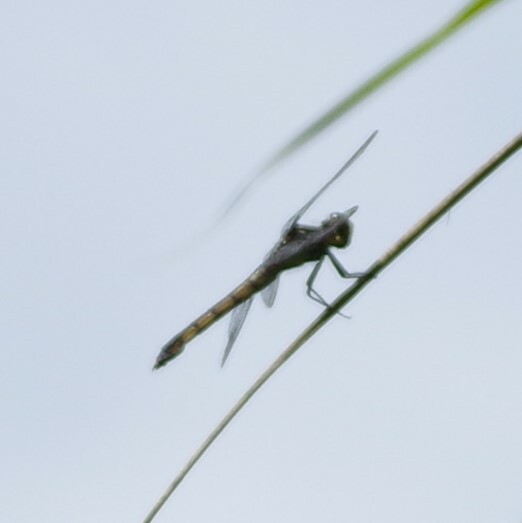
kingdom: Animalia
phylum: Arthropoda
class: Insecta
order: Odonata
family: Libellulidae
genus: Libellula
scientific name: Libellula vibrans
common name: Great blue skimmer
